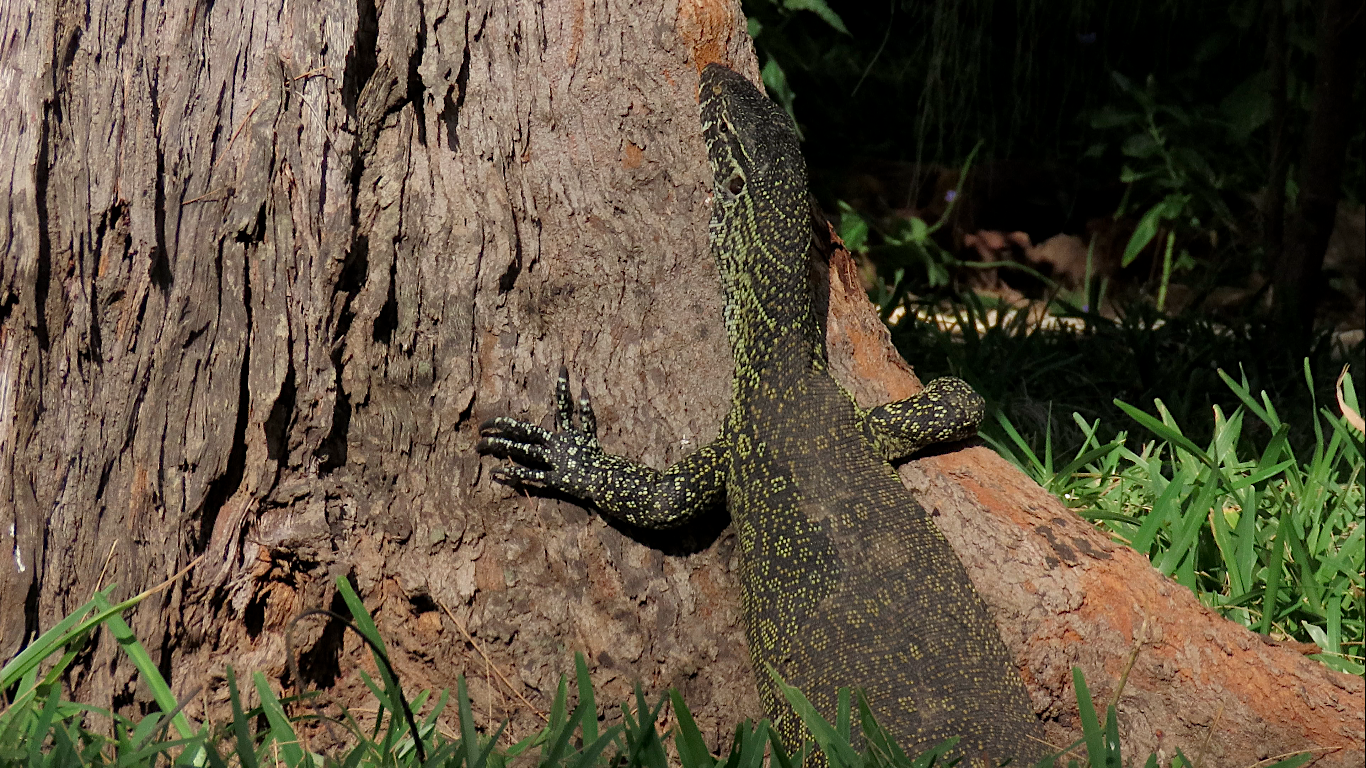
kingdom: Animalia
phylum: Chordata
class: Squamata
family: Varanidae
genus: Varanus
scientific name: Varanus niloticus
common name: Nile monitor
